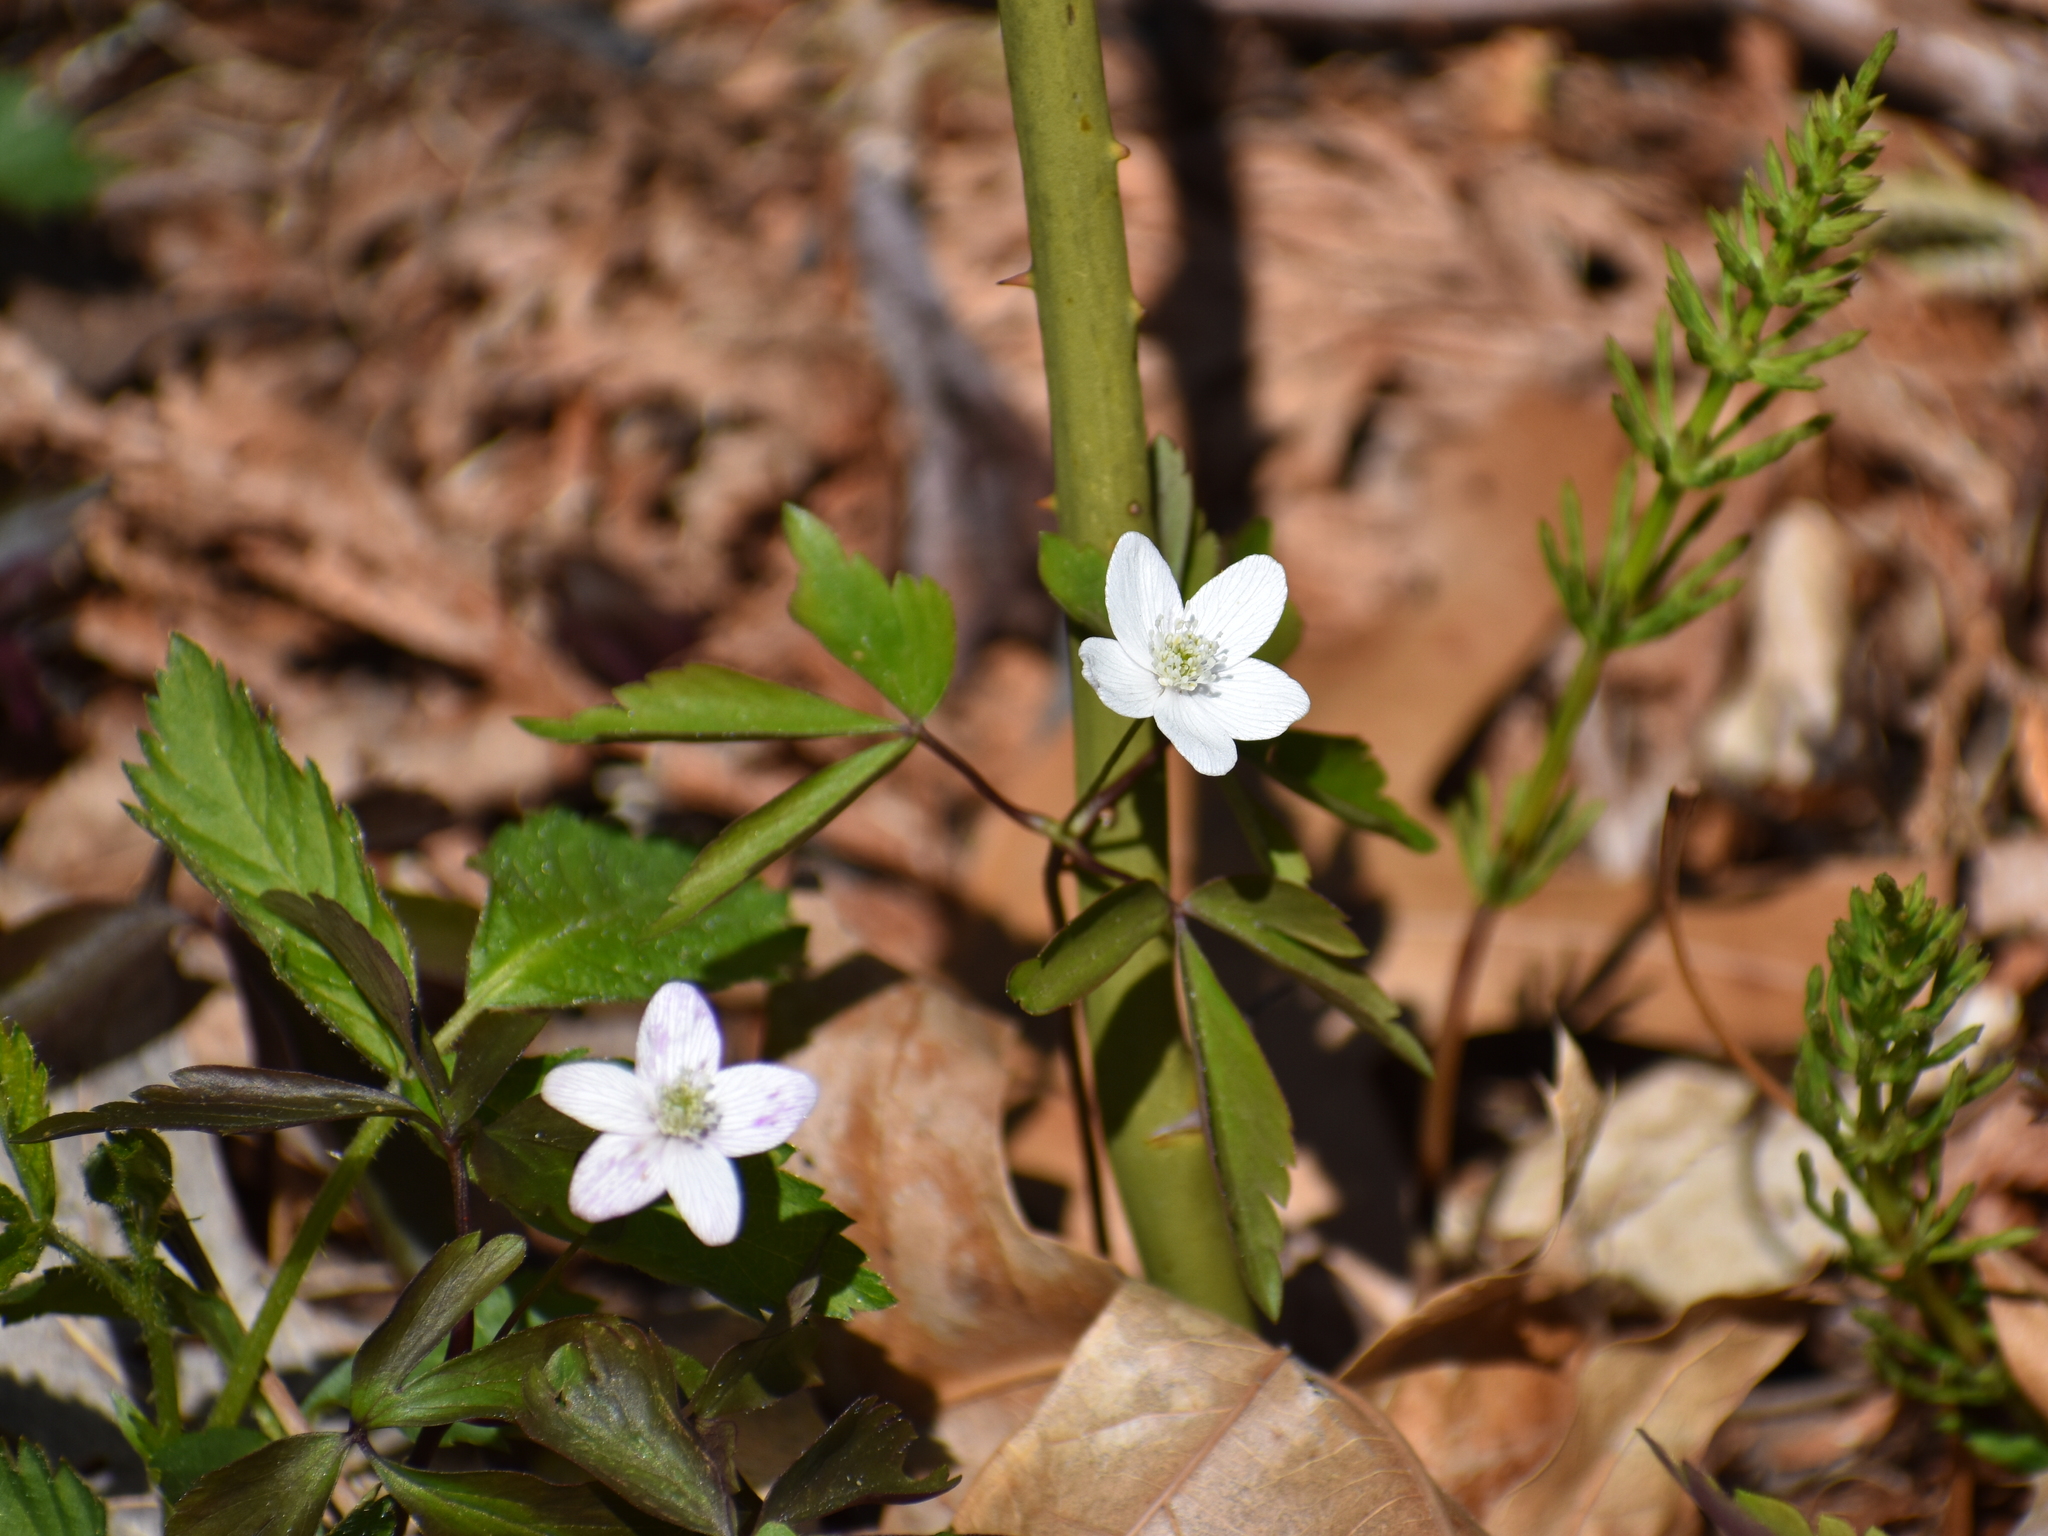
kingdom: Plantae
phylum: Tracheophyta
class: Magnoliopsida
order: Ranunculales
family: Ranunculaceae
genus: Anemone
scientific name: Anemone quinquefolia
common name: Wood anemone
